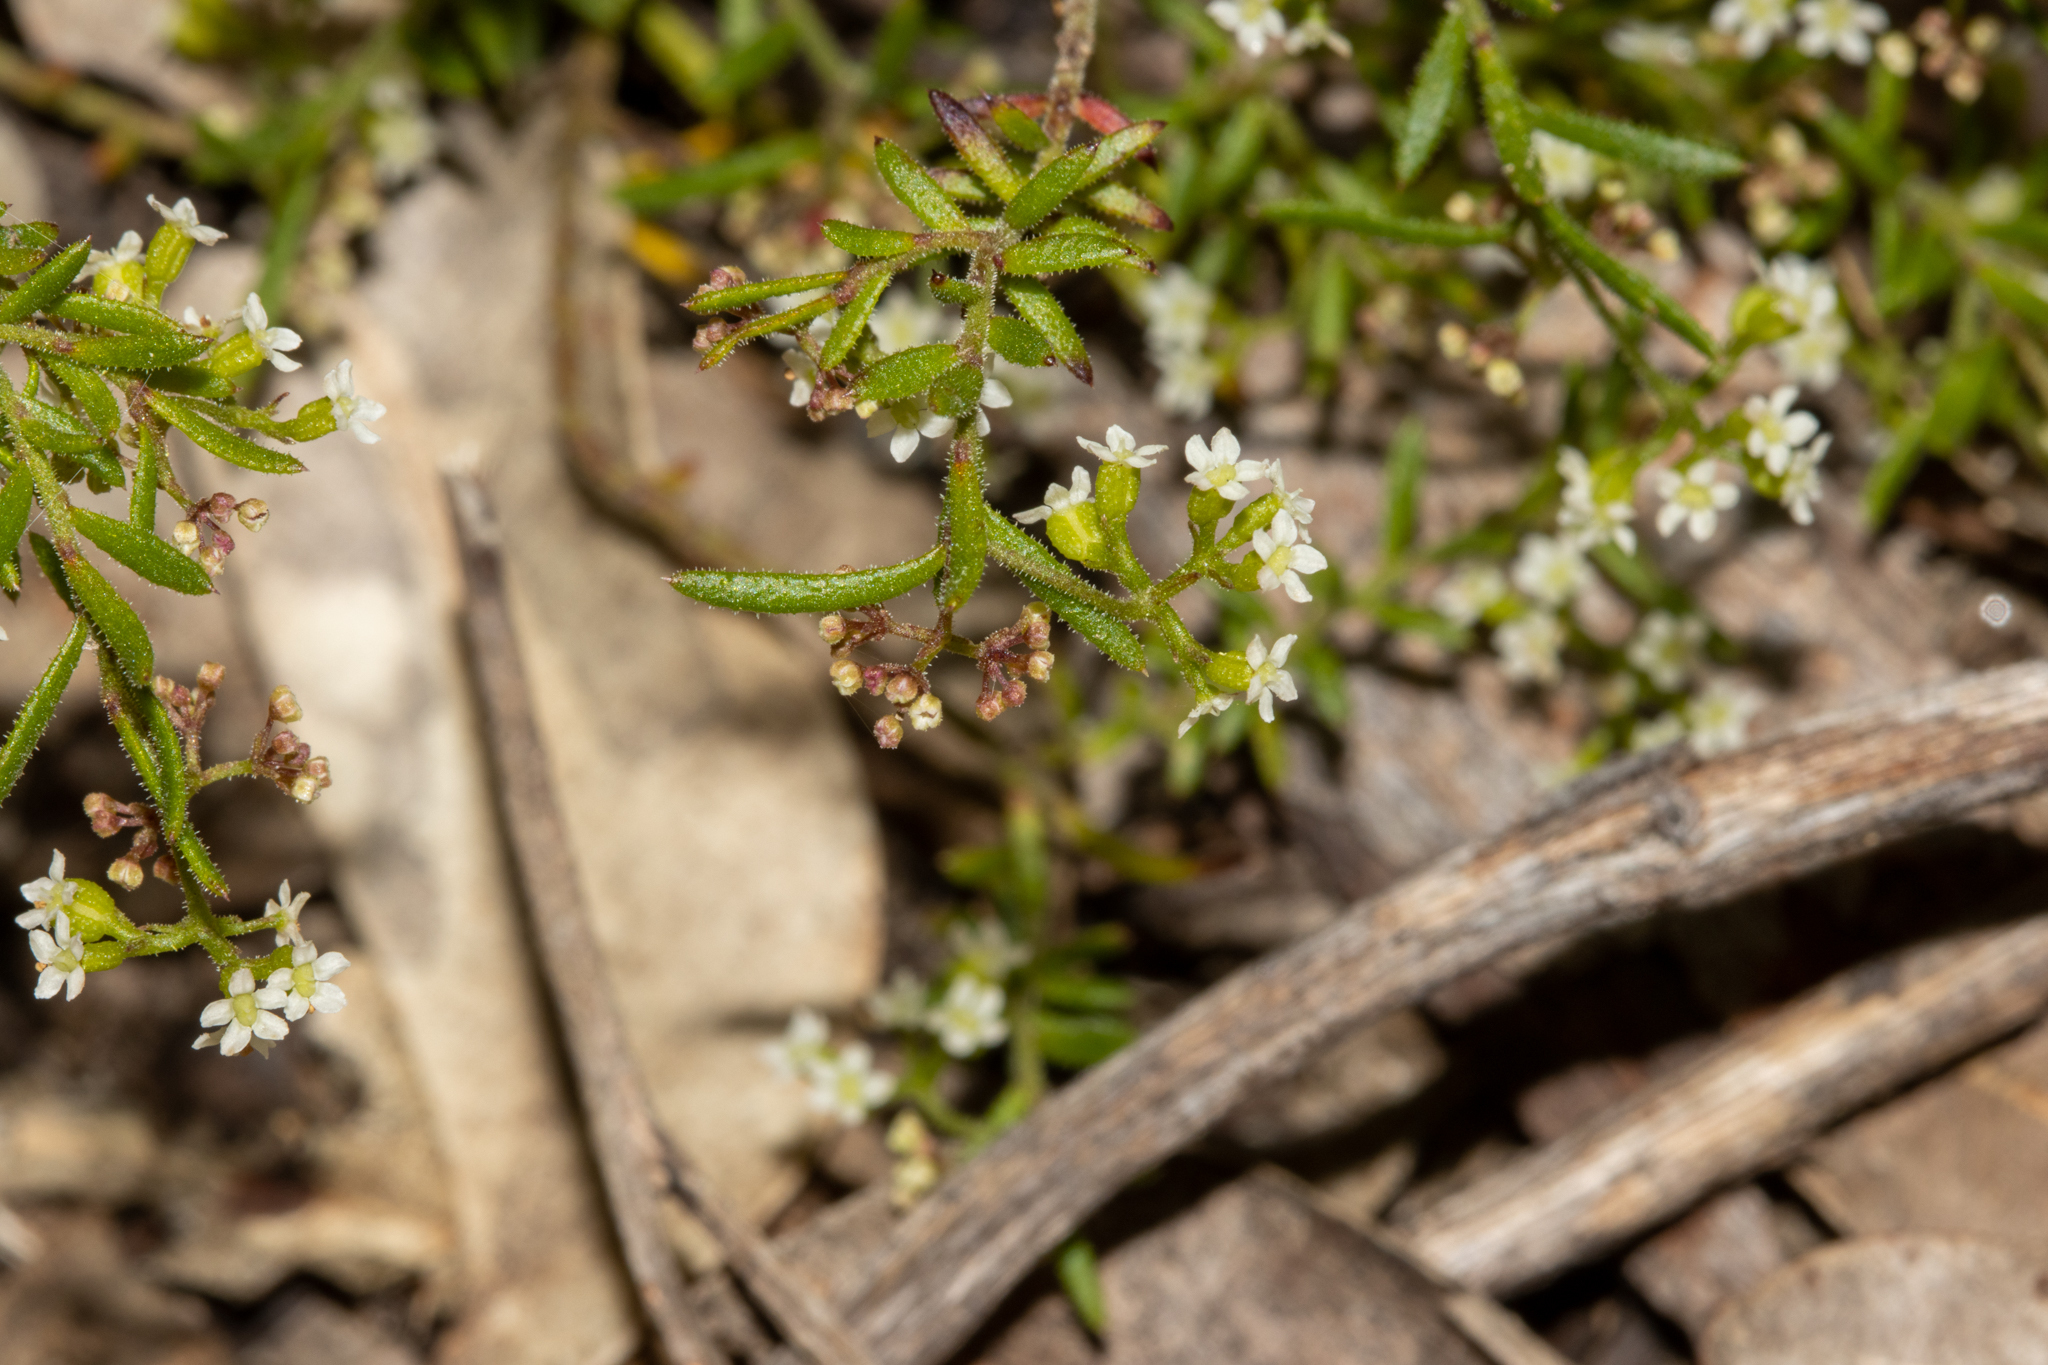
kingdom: Plantae
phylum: Tracheophyta
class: Magnoliopsida
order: Apiales
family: Apiaceae
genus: Platysace
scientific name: Platysace ericoides
